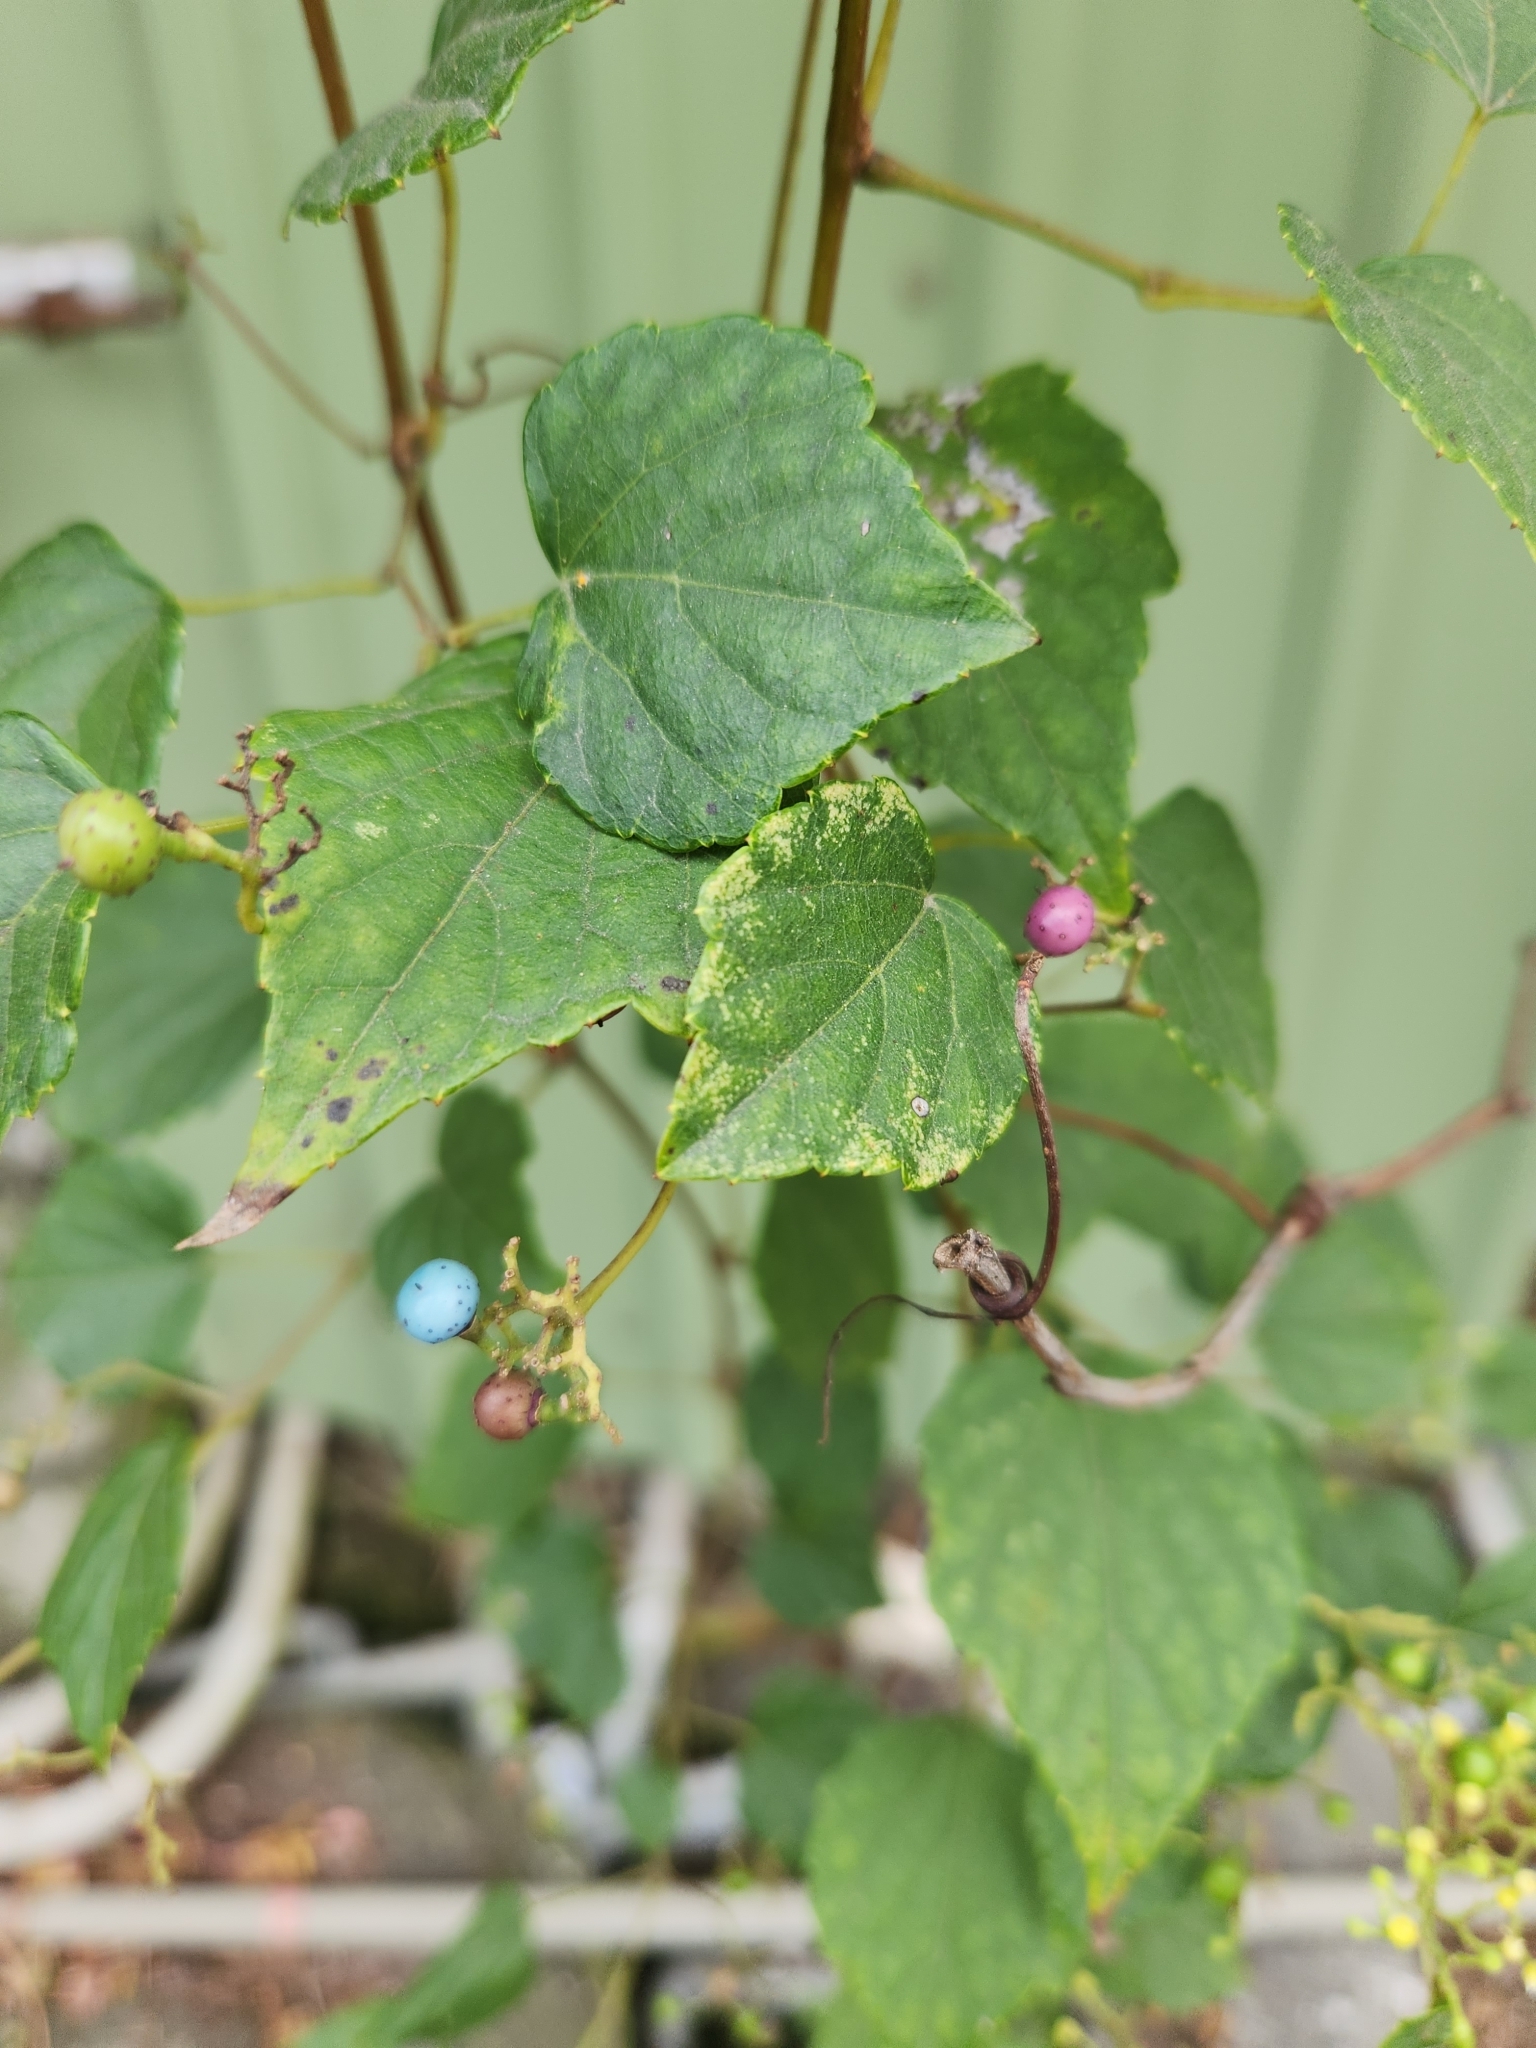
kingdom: Plantae
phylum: Tracheophyta
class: Magnoliopsida
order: Vitales
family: Vitaceae
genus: Ampelopsis
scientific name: Ampelopsis glandulosa
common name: Amur peppervine
